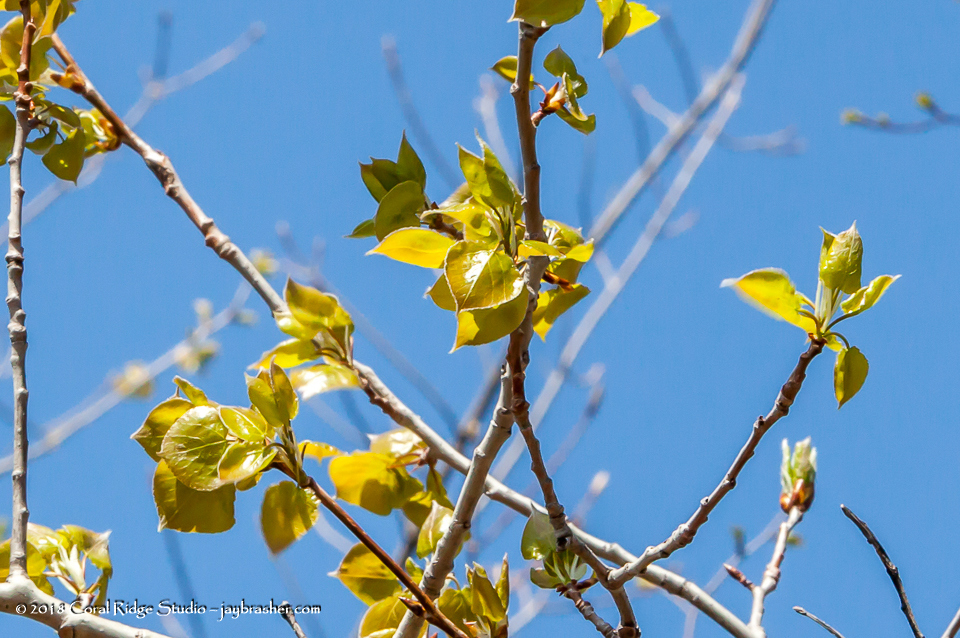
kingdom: Plantae
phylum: Tracheophyta
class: Magnoliopsida
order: Malpighiales
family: Salicaceae
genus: Populus
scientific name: Populus tremuloides
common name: Quaking aspen
